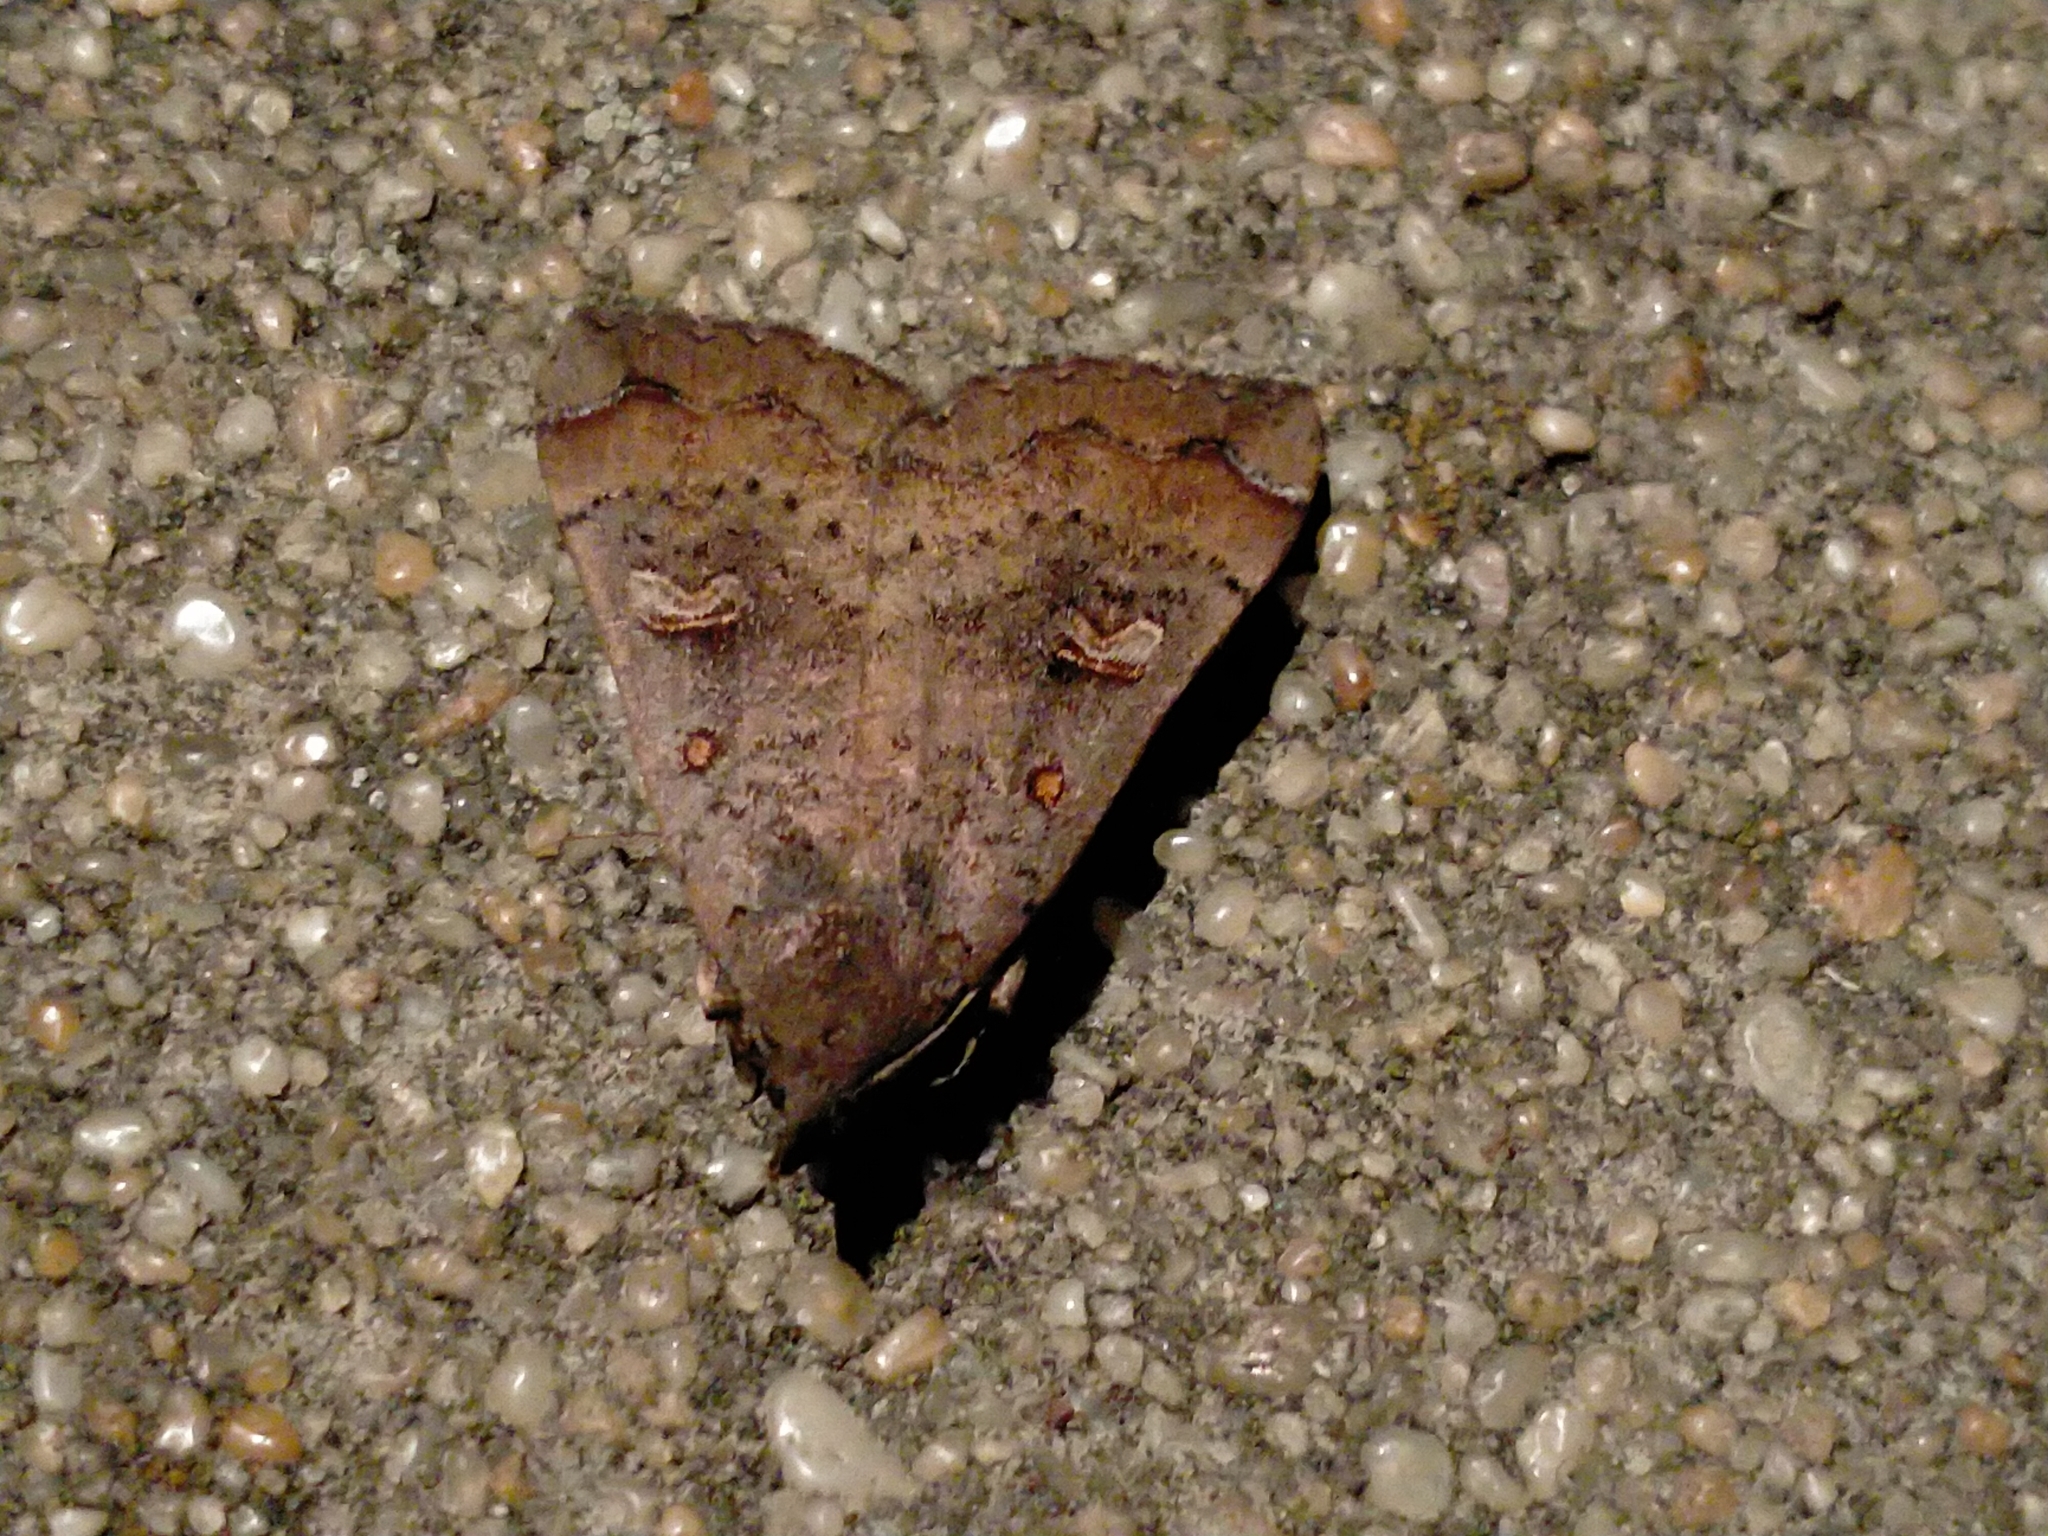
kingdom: Animalia
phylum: Arthropoda
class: Insecta
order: Lepidoptera
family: Erebidae
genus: Rhapsa
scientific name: Rhapsa scotosialis
